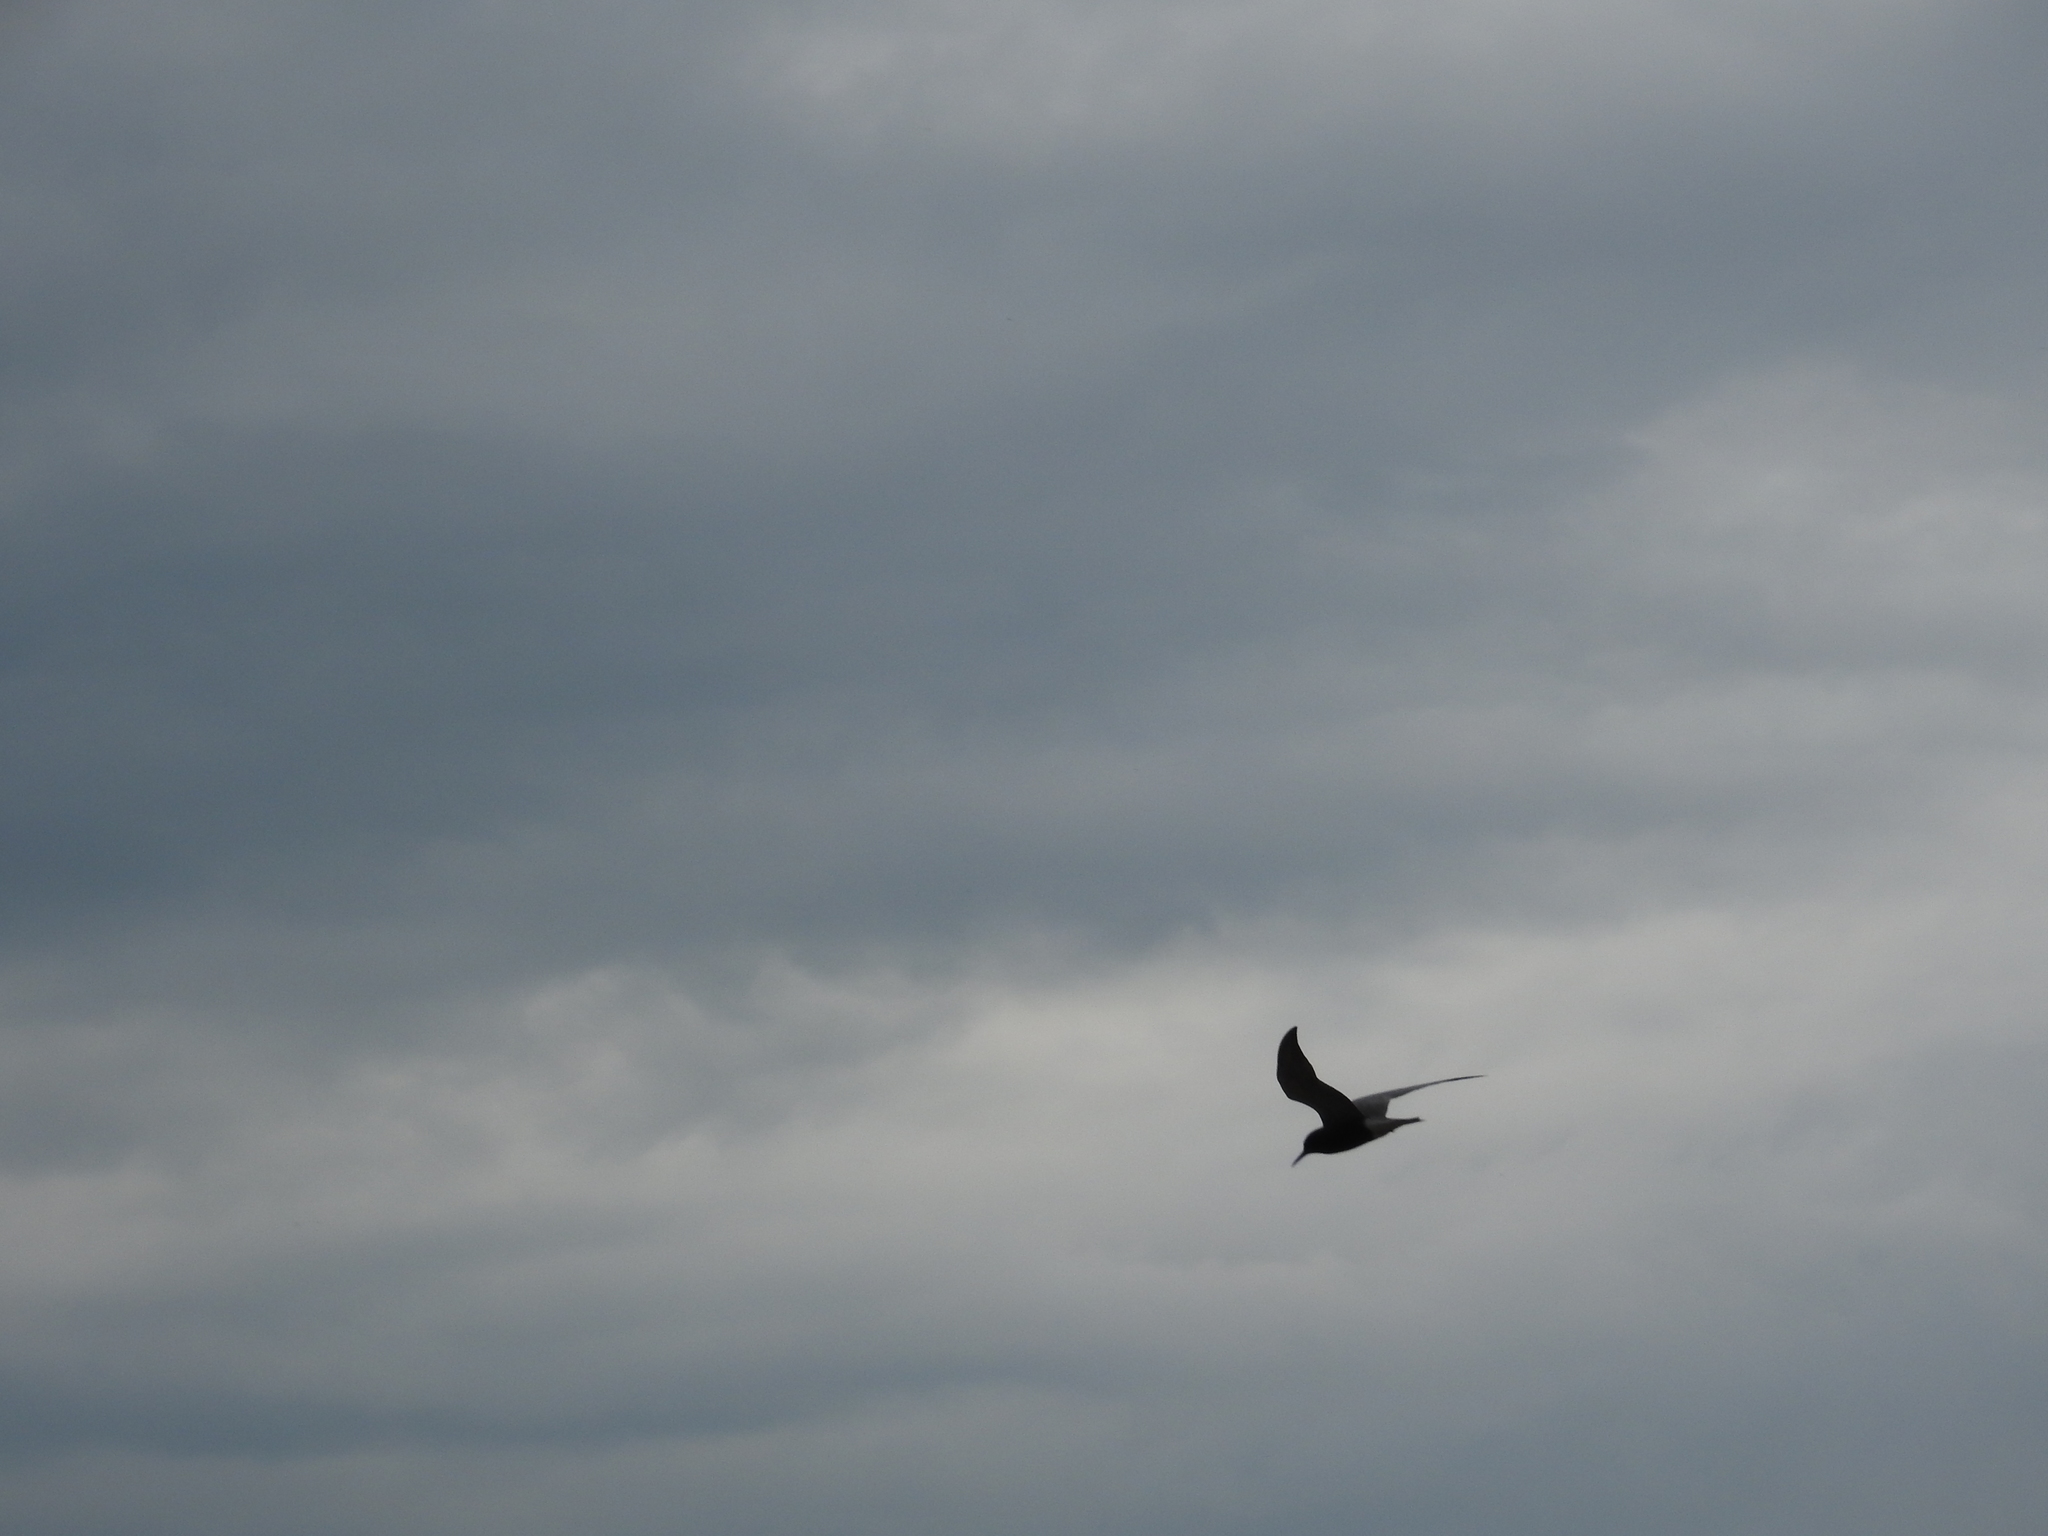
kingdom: Animalia
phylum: Chordata
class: Aves
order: Charadriiformes
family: Laridae
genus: Chlidonias
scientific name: Chlidonias niger
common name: Black tern
